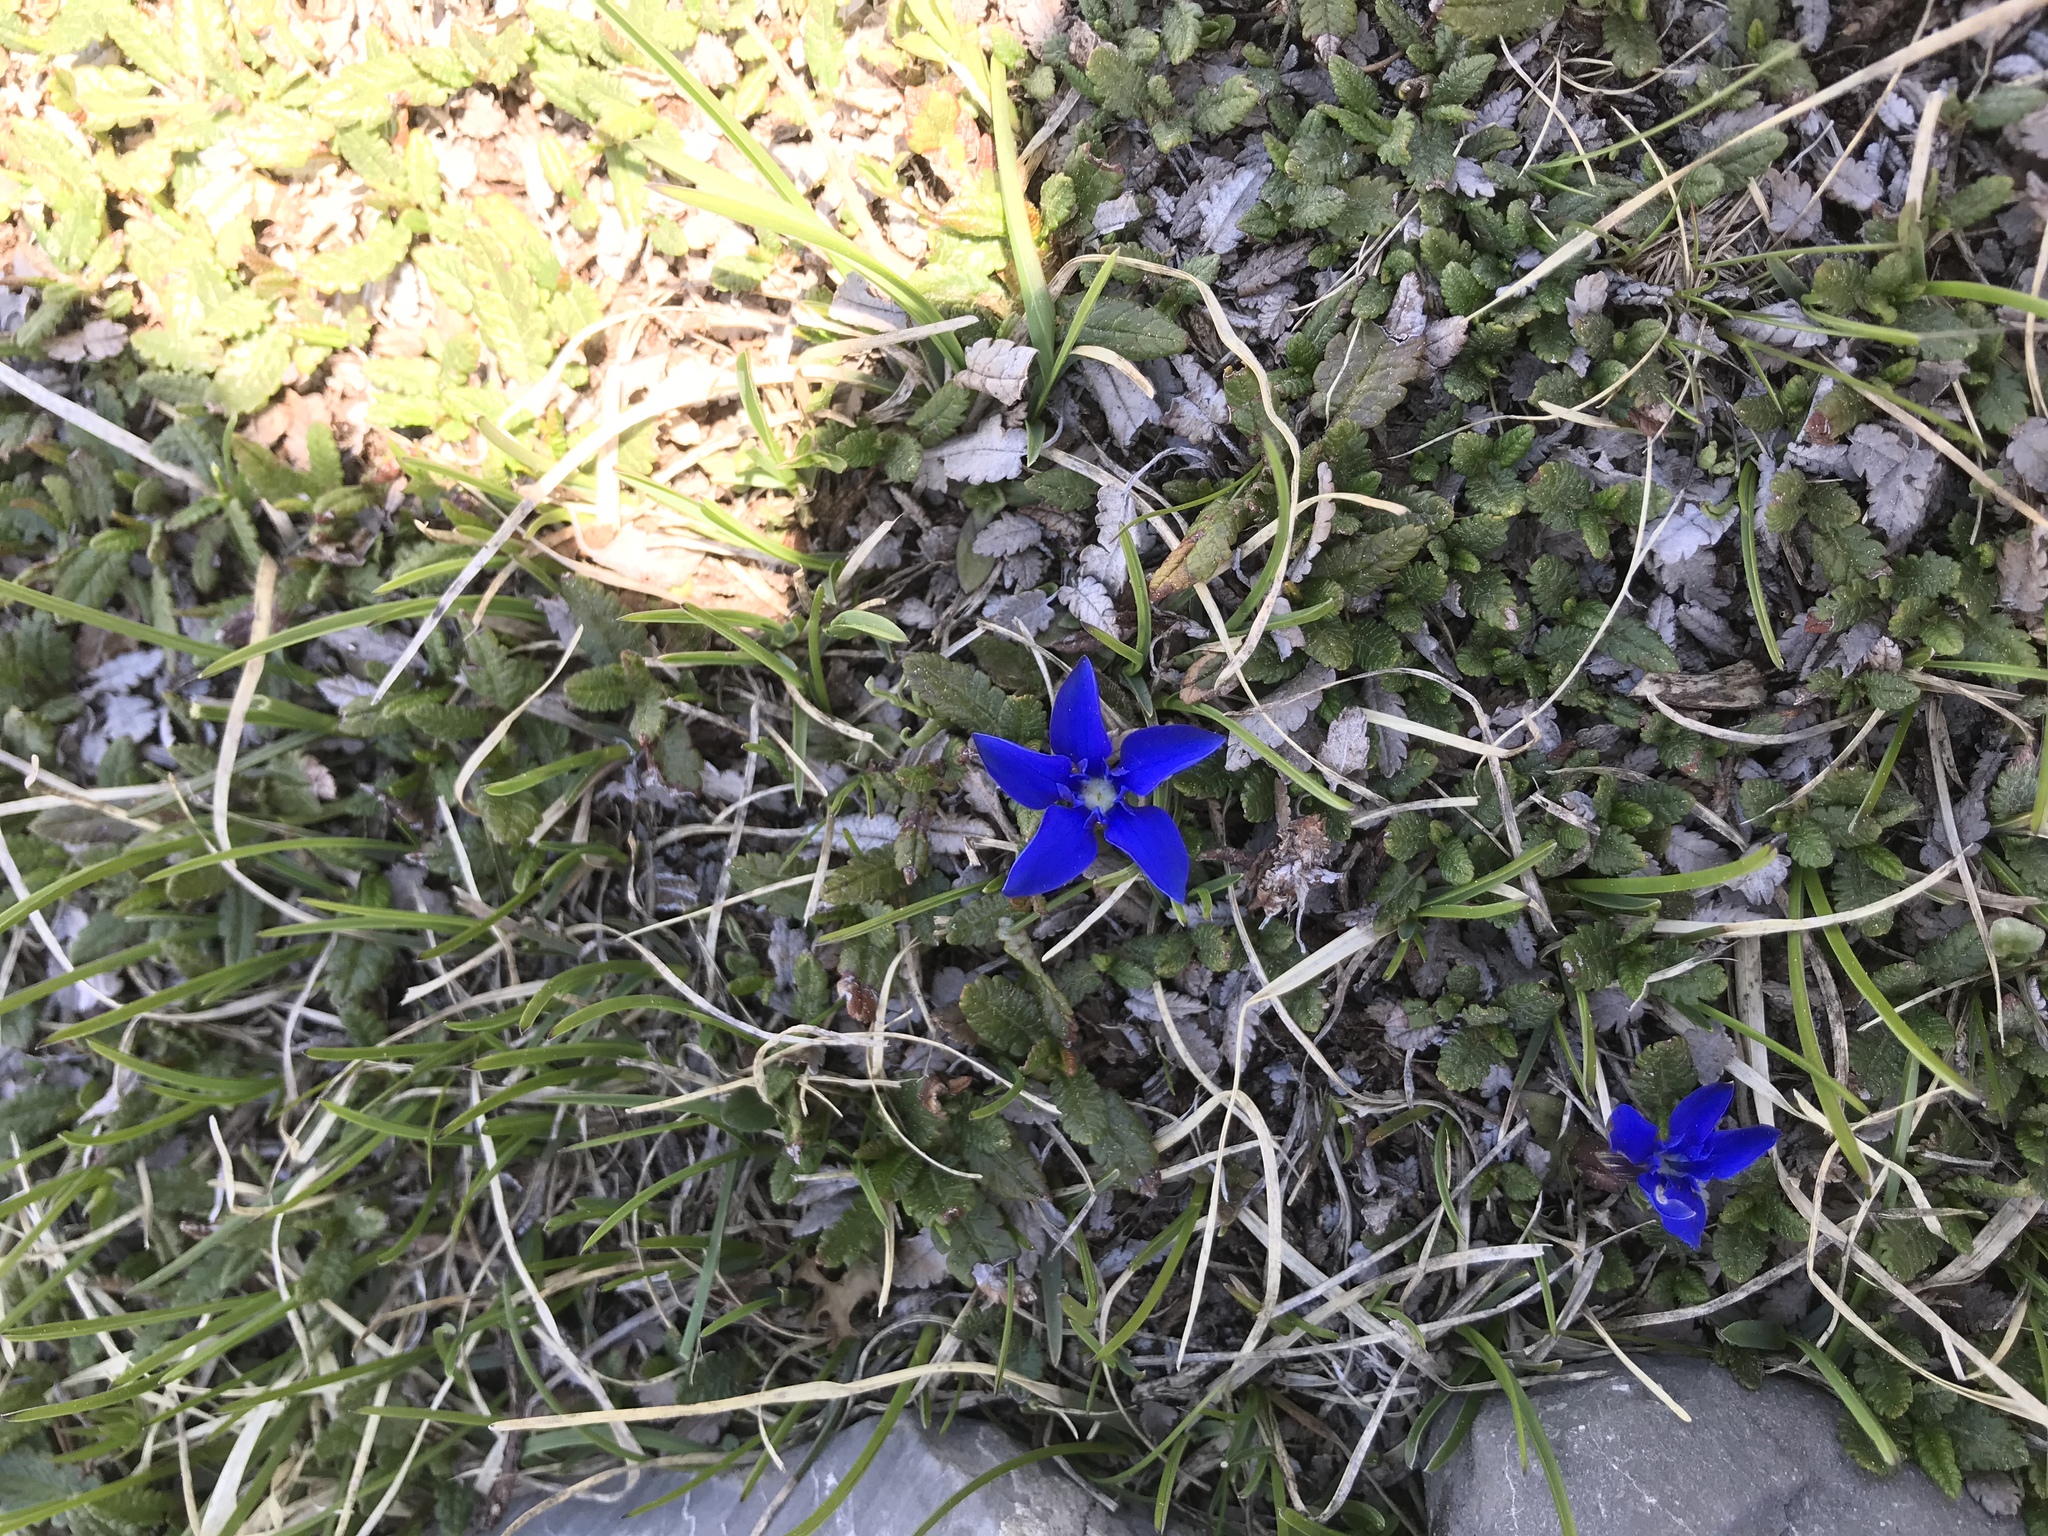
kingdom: Plantae
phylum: Tracheophyta
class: Magnoliopsida
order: Gentianales
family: Gentianaceae
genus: Gentiana
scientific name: Gentiana verna
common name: Spring gentian
